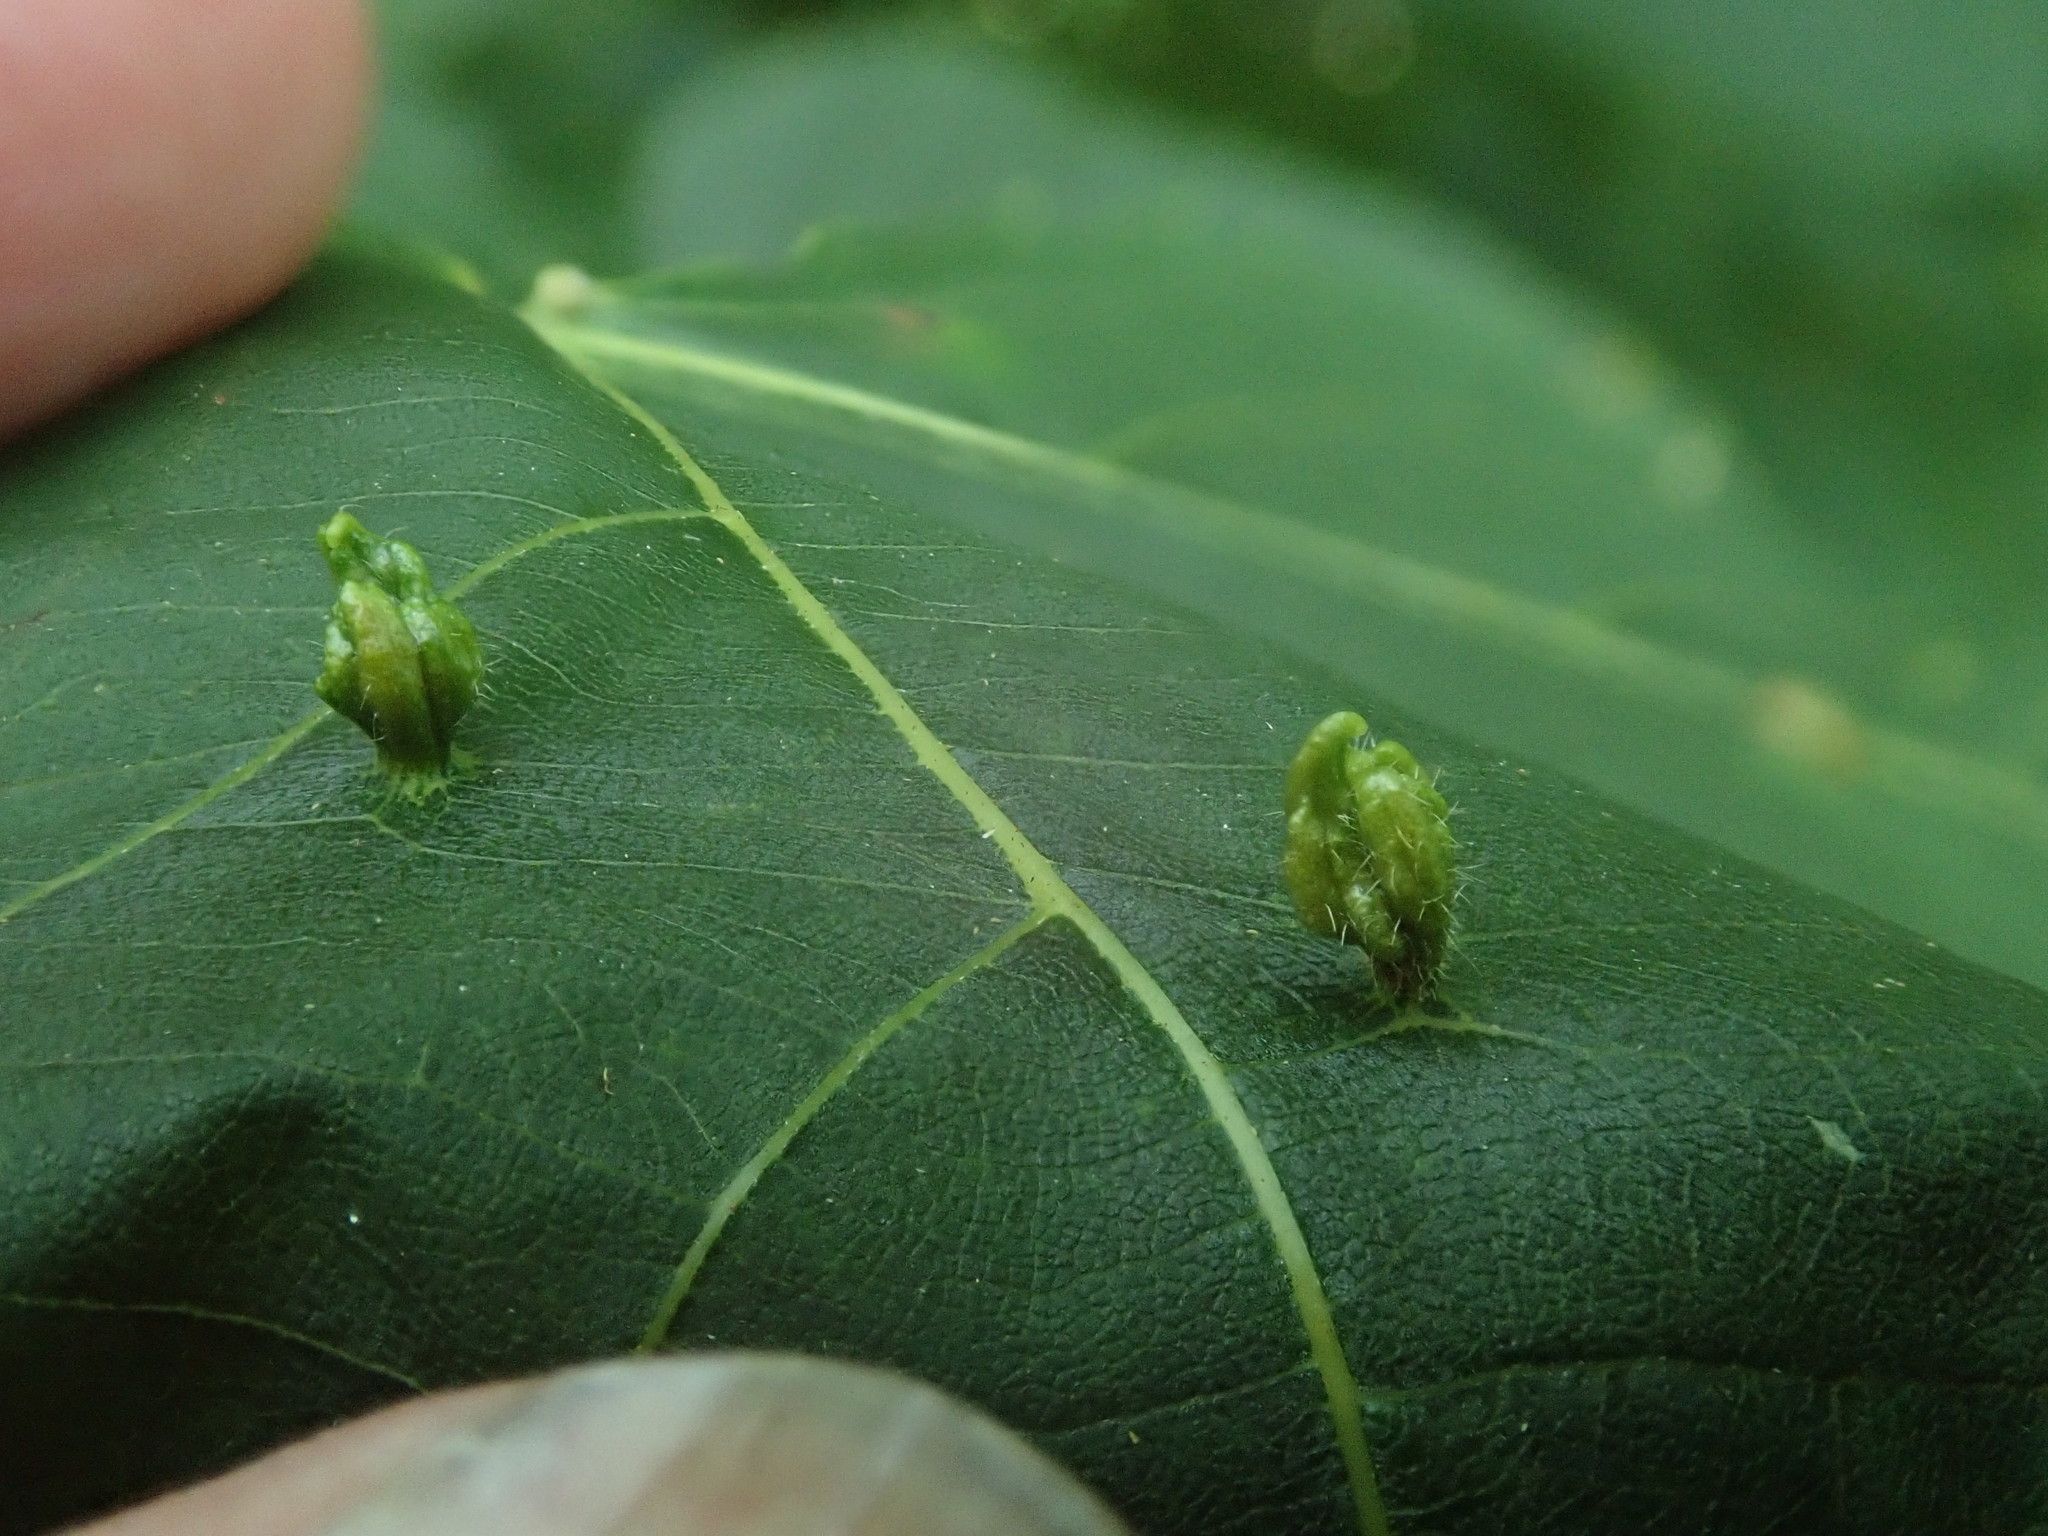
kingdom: Animalia
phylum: Arthropoda
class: Arachnida
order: Trombidiformes
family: Eriophyidae
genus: Eriophyes
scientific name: Eriophyes tiliae
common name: Red nail gall mite
